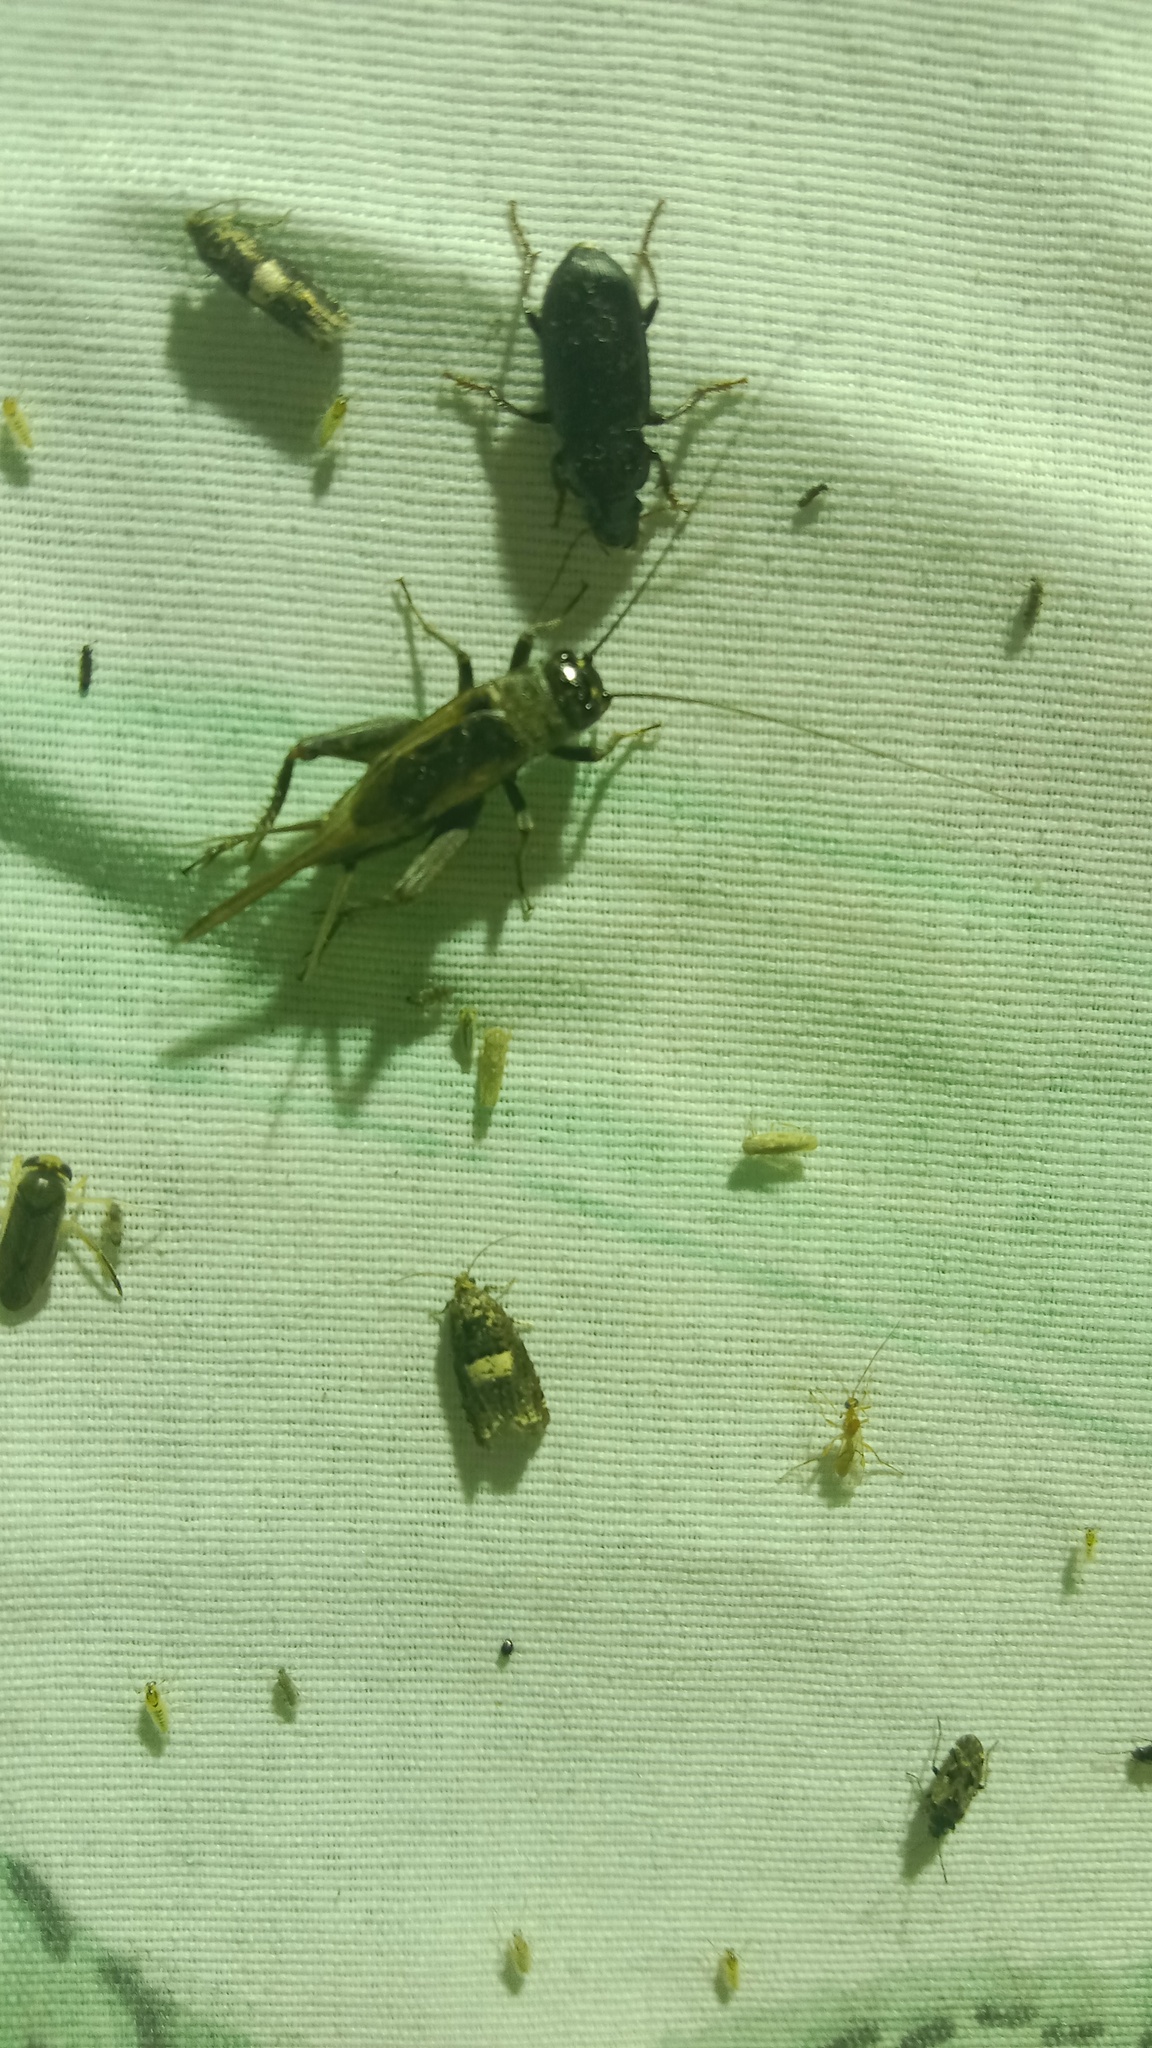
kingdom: Animalia
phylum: Arthropoda
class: Insecta
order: Orthoptera
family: Gryllidae
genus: Eumodicogryllus
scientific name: Eumodicogryllus bordigalensis
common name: Bordeaux cricket
